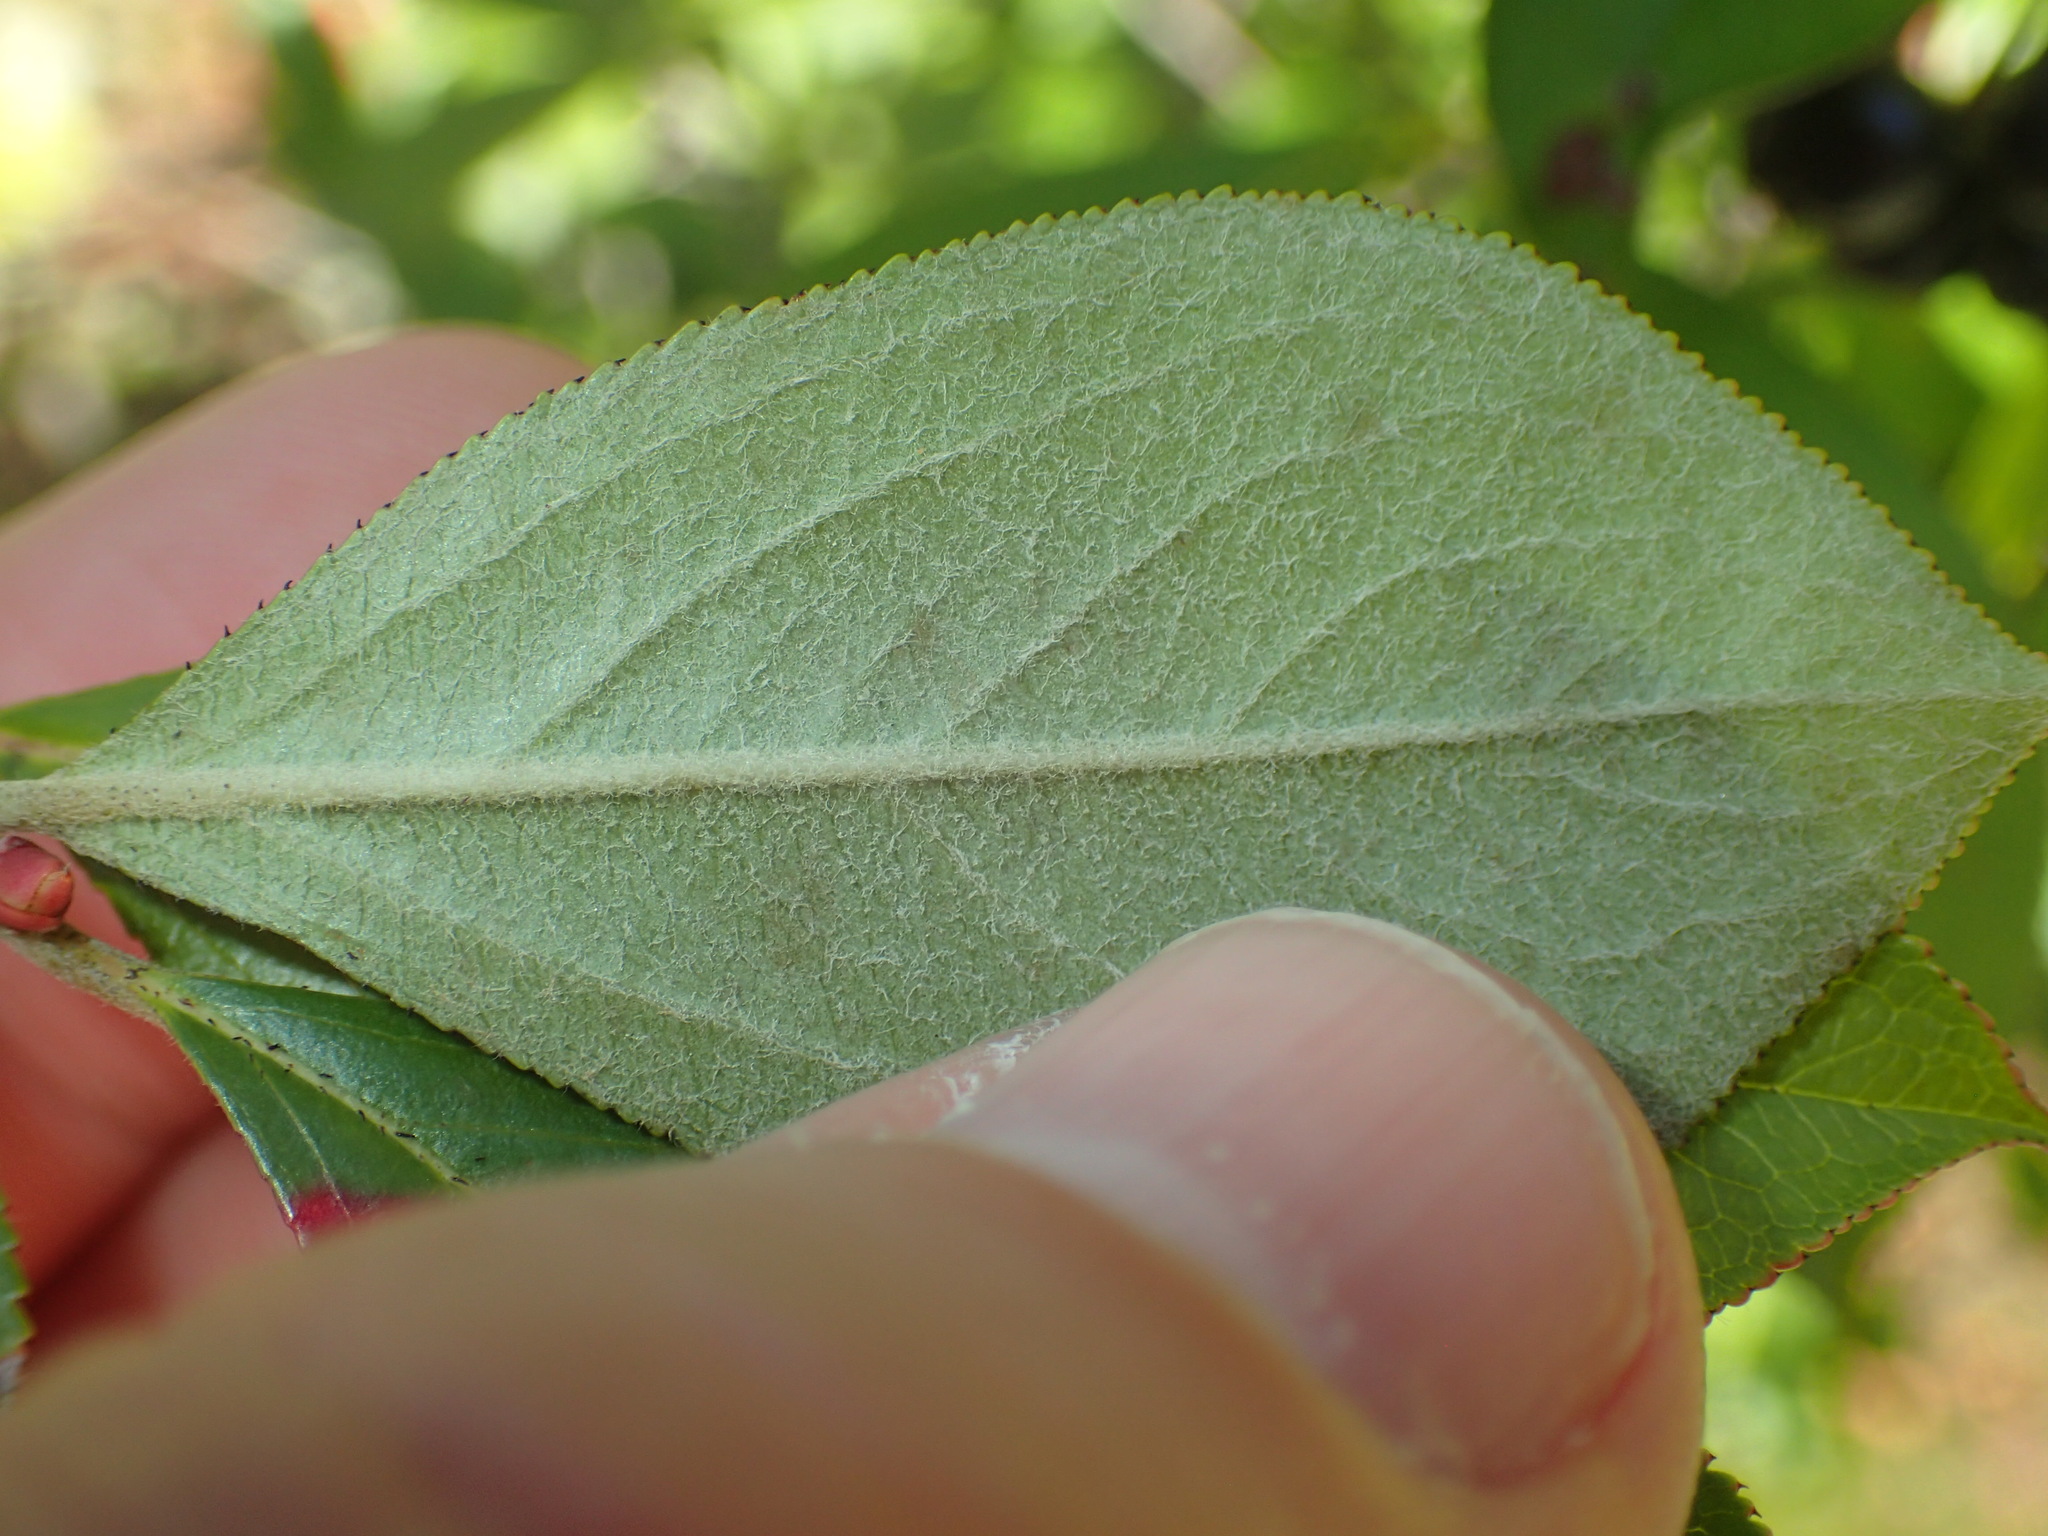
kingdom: Plantae
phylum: Tracheophyta
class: Magnoliopsida
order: Rosales
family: Rosaceae
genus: Aronia
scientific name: Aronia prunifolia
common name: Purple chokeberry
